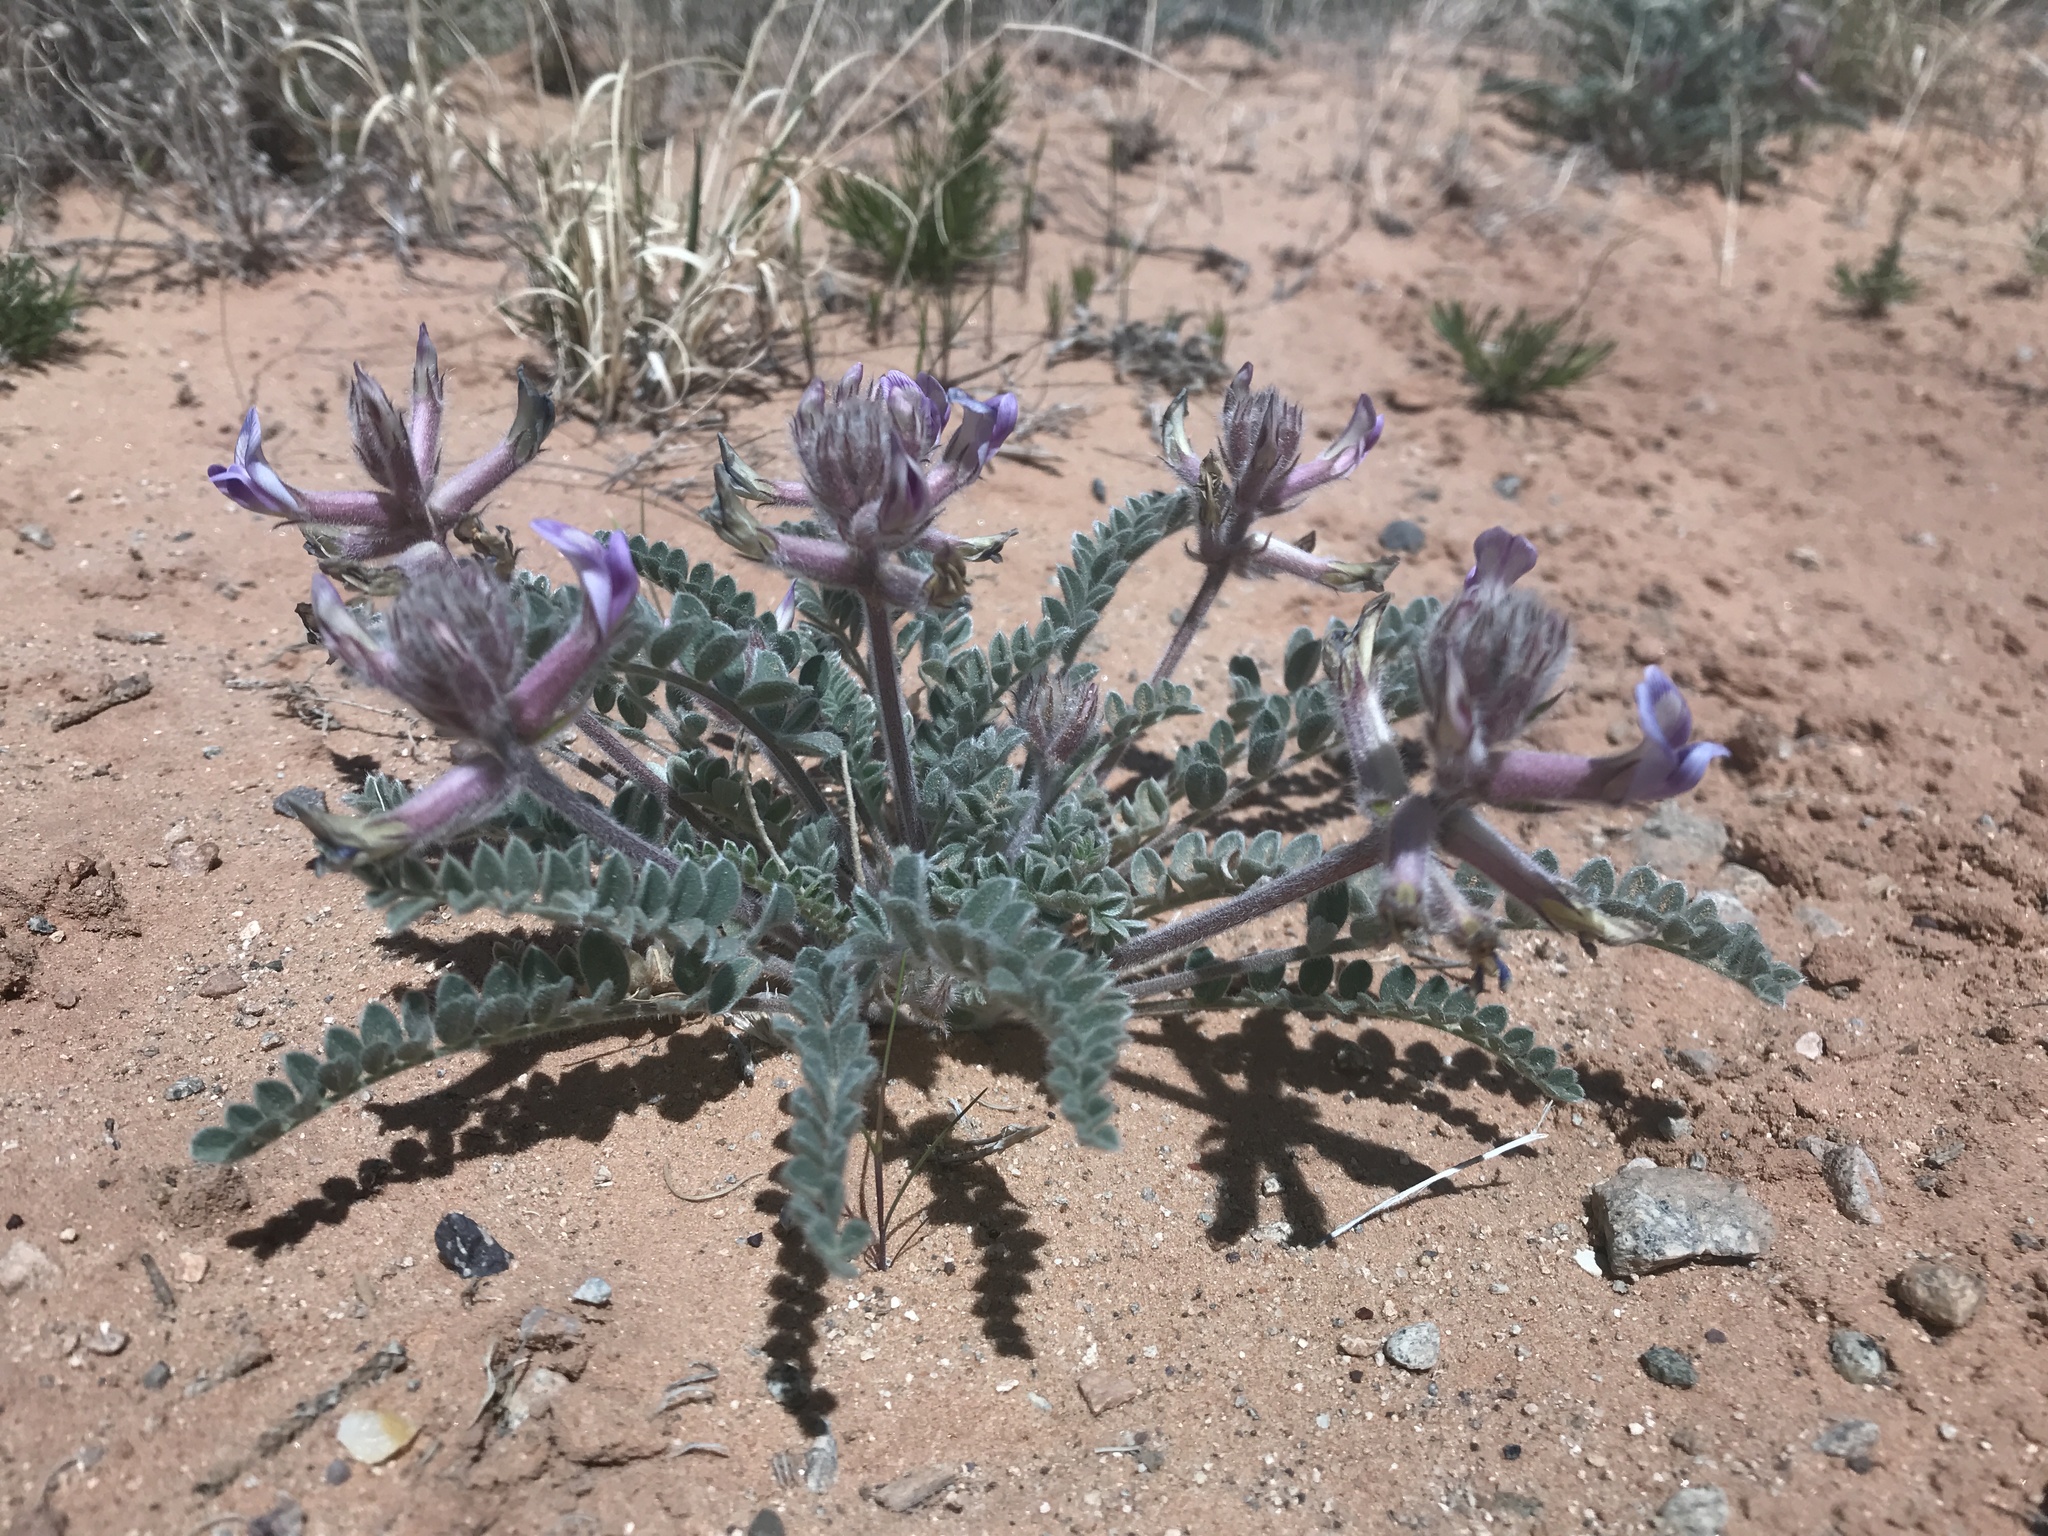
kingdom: Plantae
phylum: Tracheophyta
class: Magnoliopsida
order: Fabales
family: Fabaceae
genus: Astragalus
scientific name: Astragalus mollissimus
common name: Woolly locoweed
